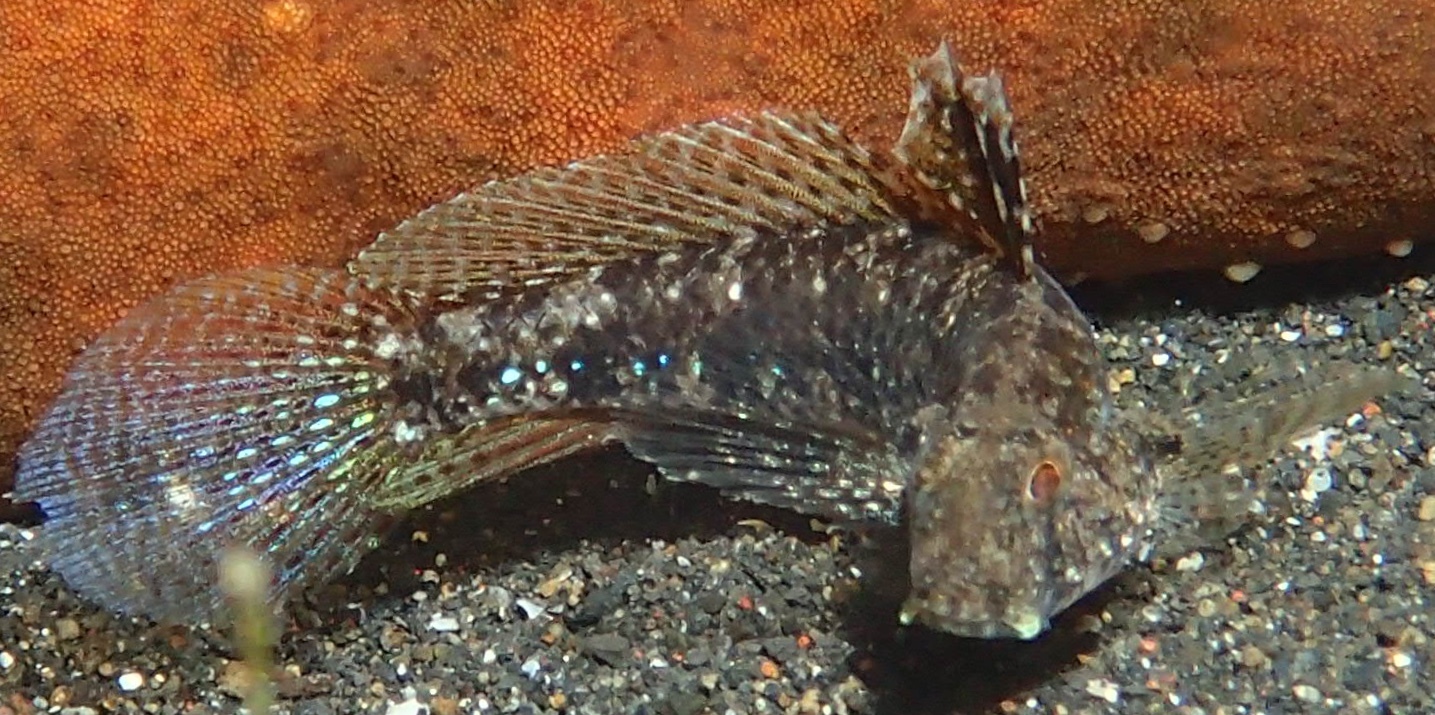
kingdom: Animalia
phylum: Chordata
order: Perciformes
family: Gobiidae
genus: Gnatholepis
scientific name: Gnatholepis yoshinoi
